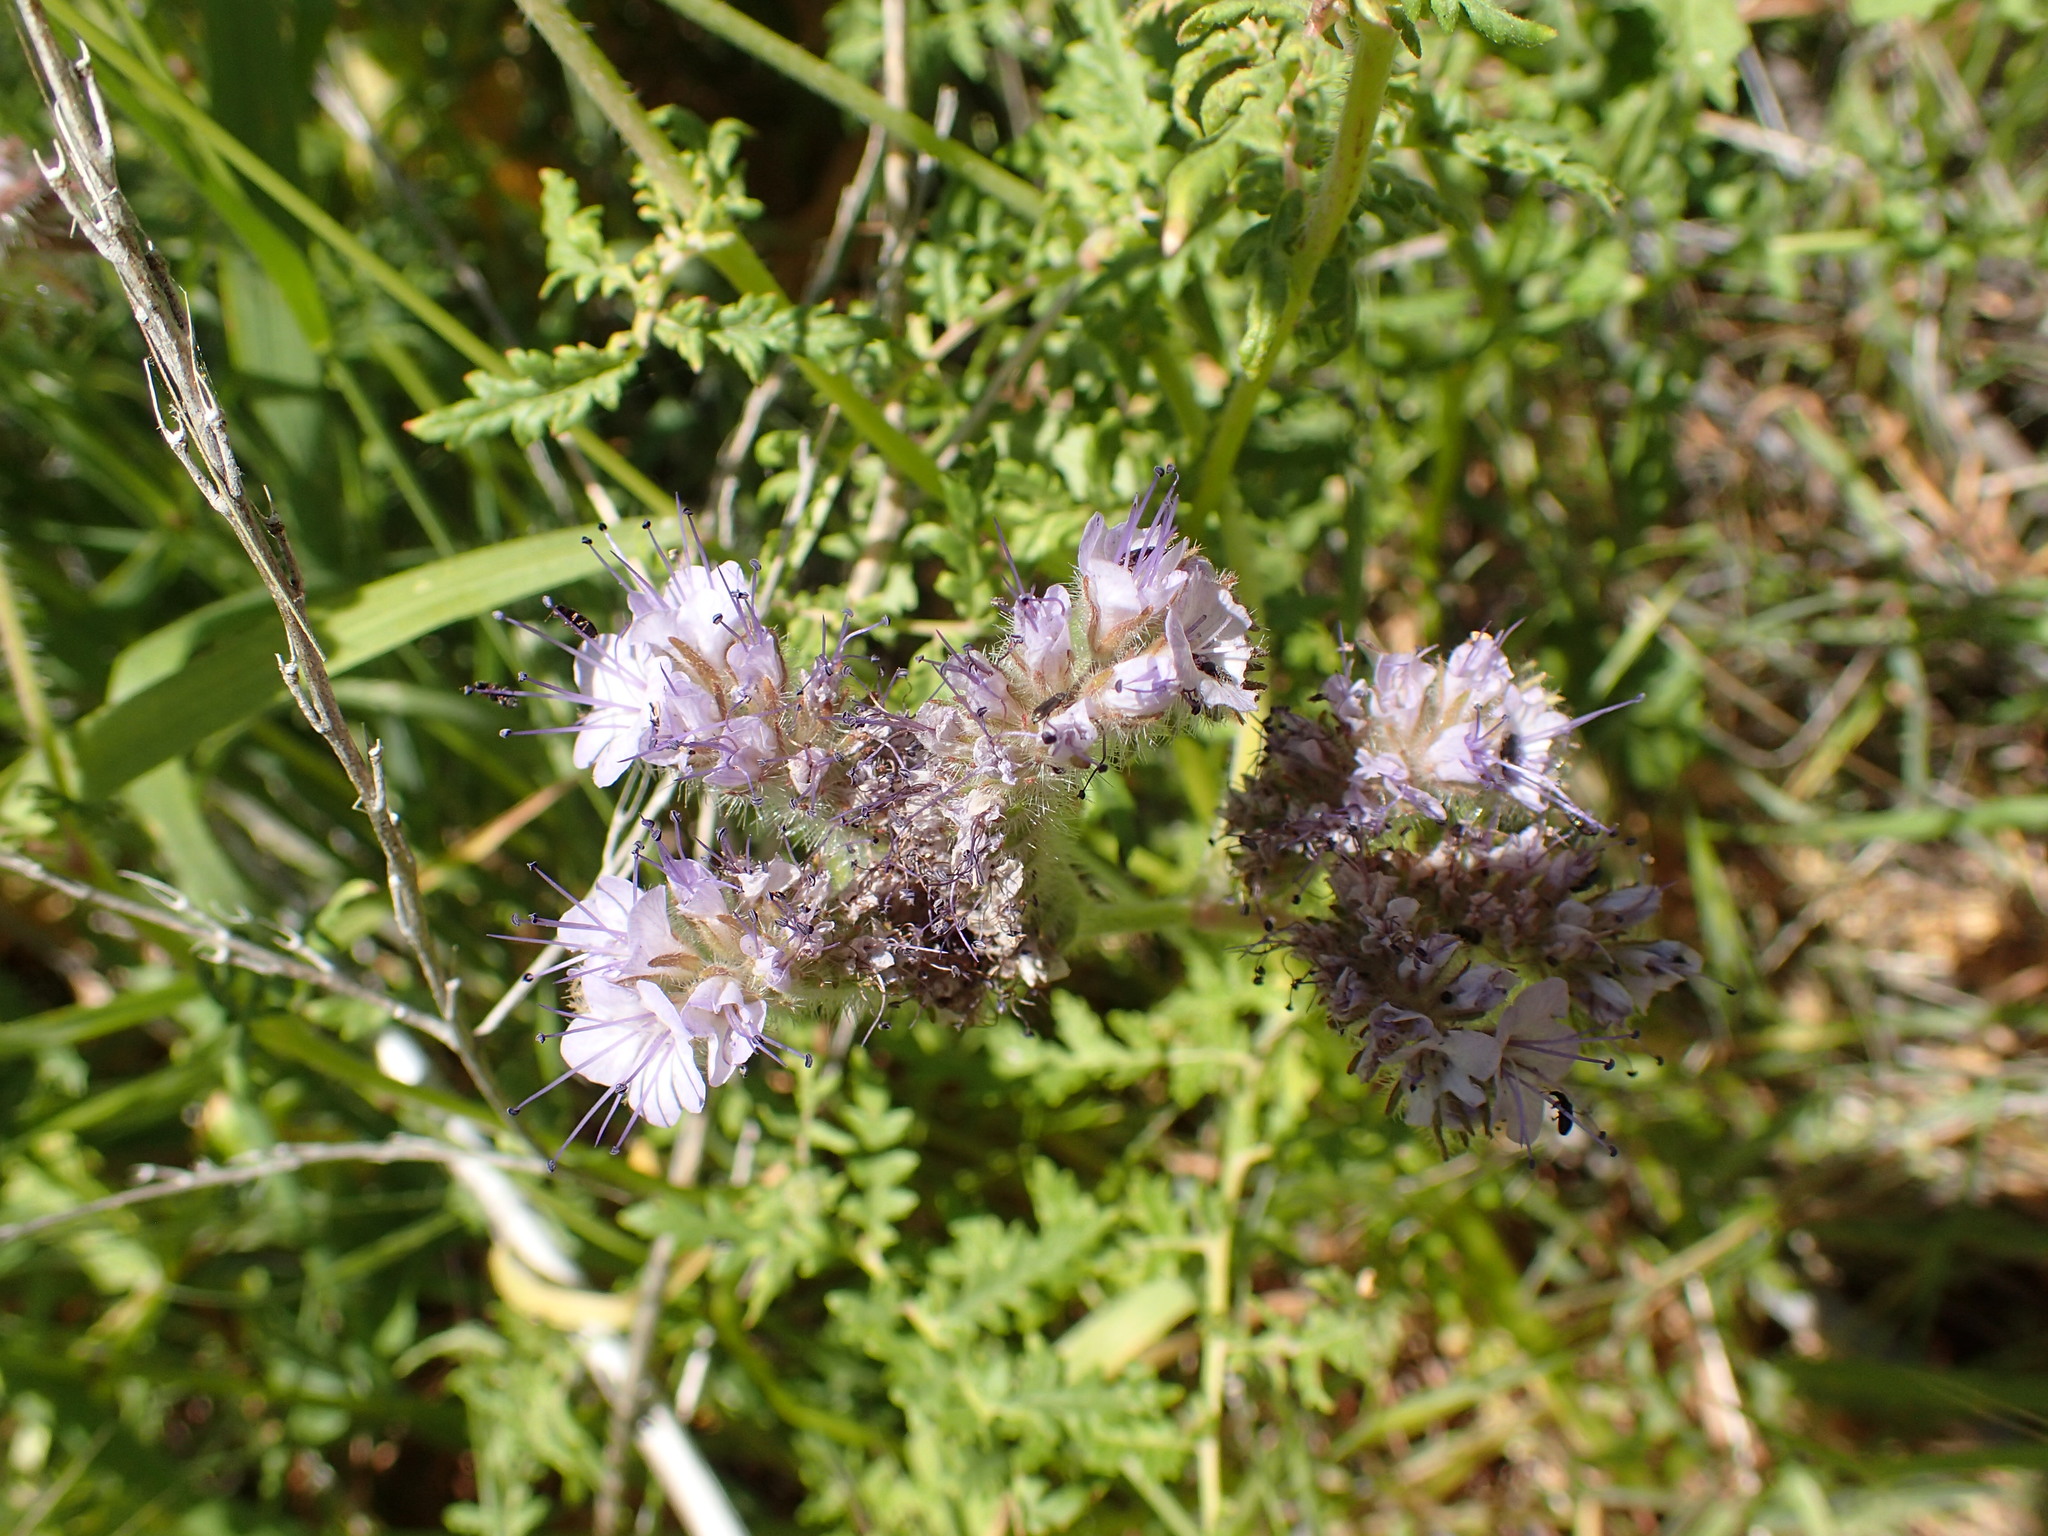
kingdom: Plantae
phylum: Tracheophyta
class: Magnoliopsida
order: Boraginales
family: Hydrophyllaceae
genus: Phacelia
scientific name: Phacelia tanacetifolia
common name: Phacelia
